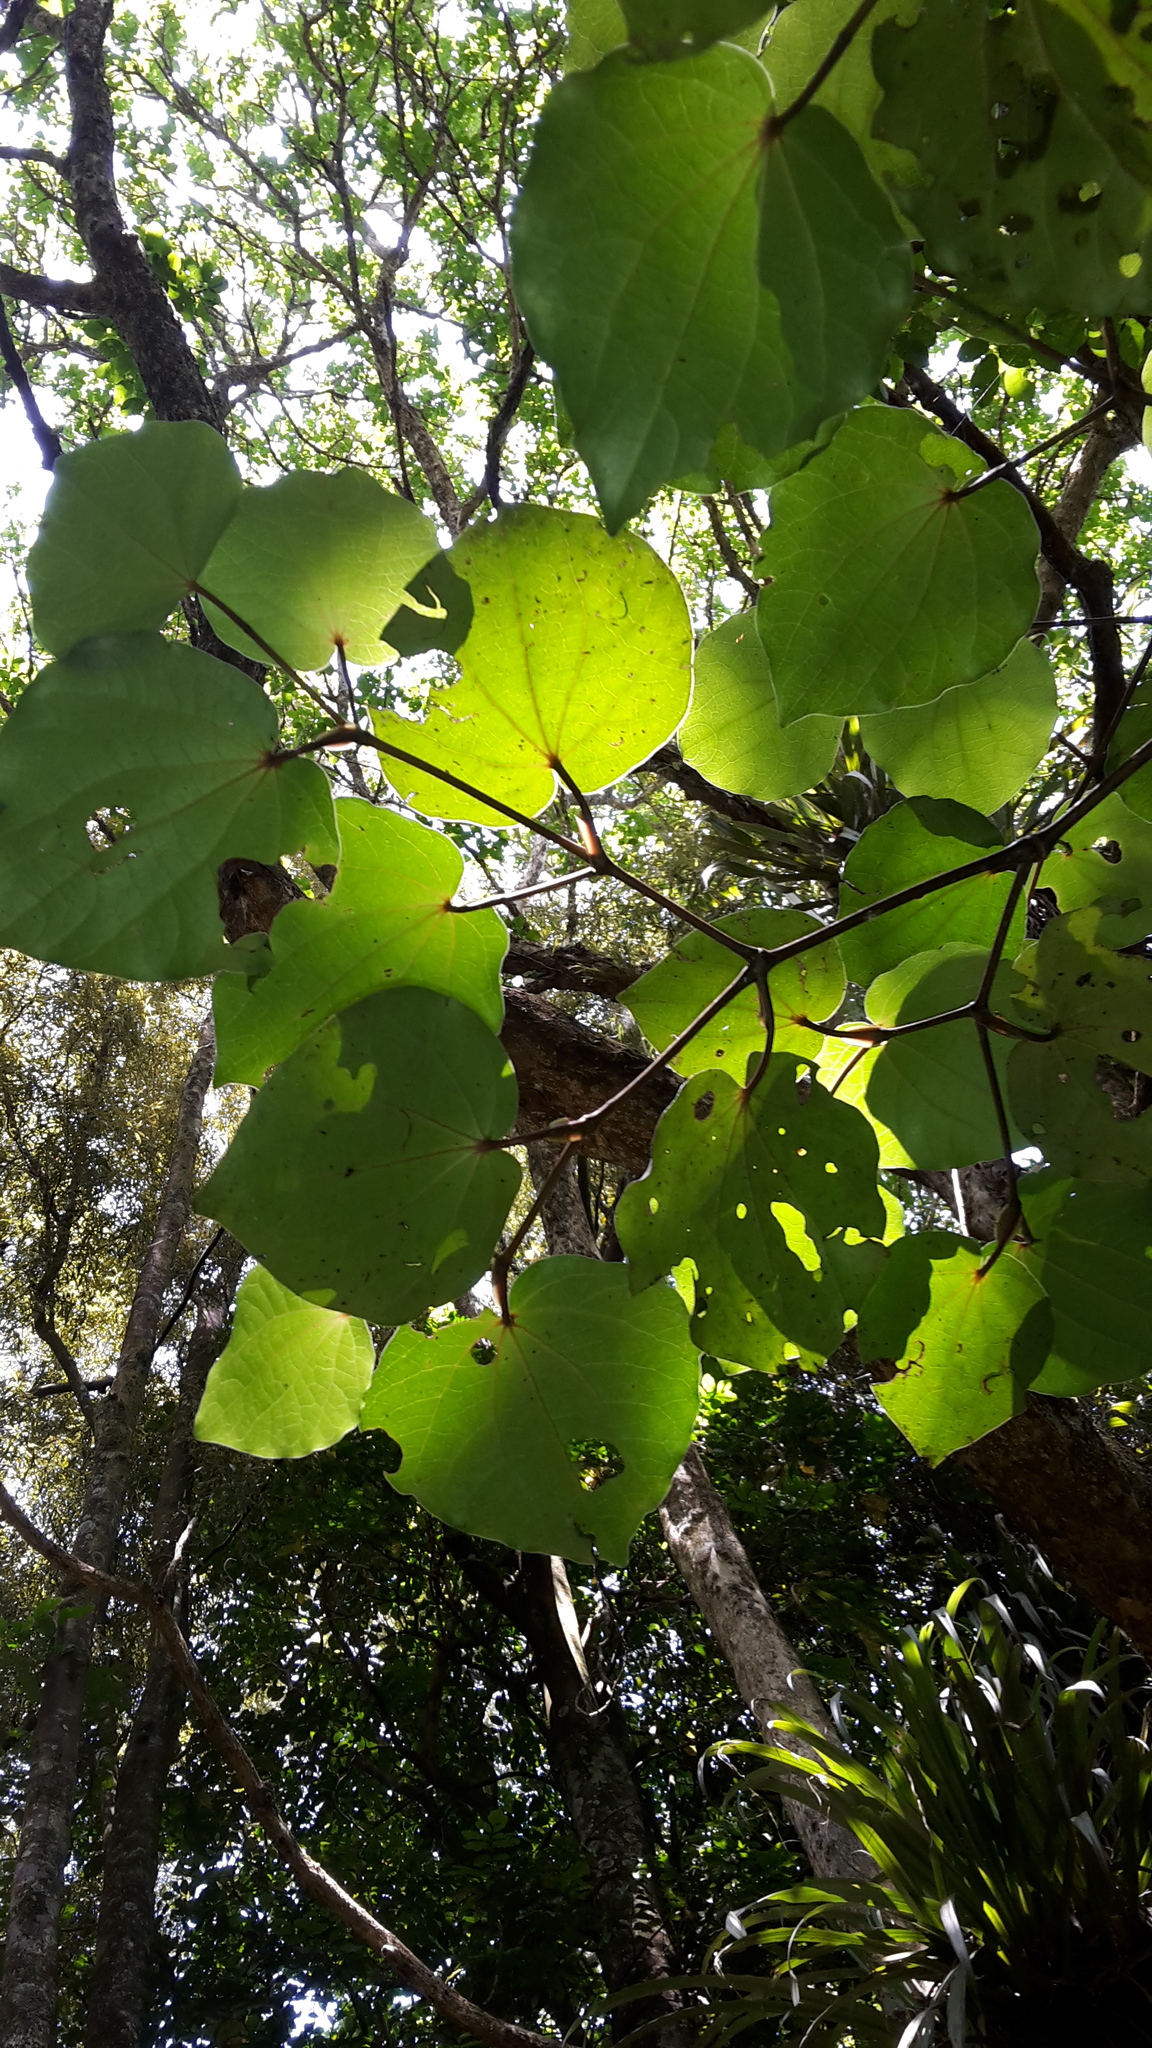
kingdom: Plantae
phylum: Tracheophyta
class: Magnoliopsida
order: Piperales
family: Piperaceae
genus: Macropiper
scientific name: Macropiper excelsum
